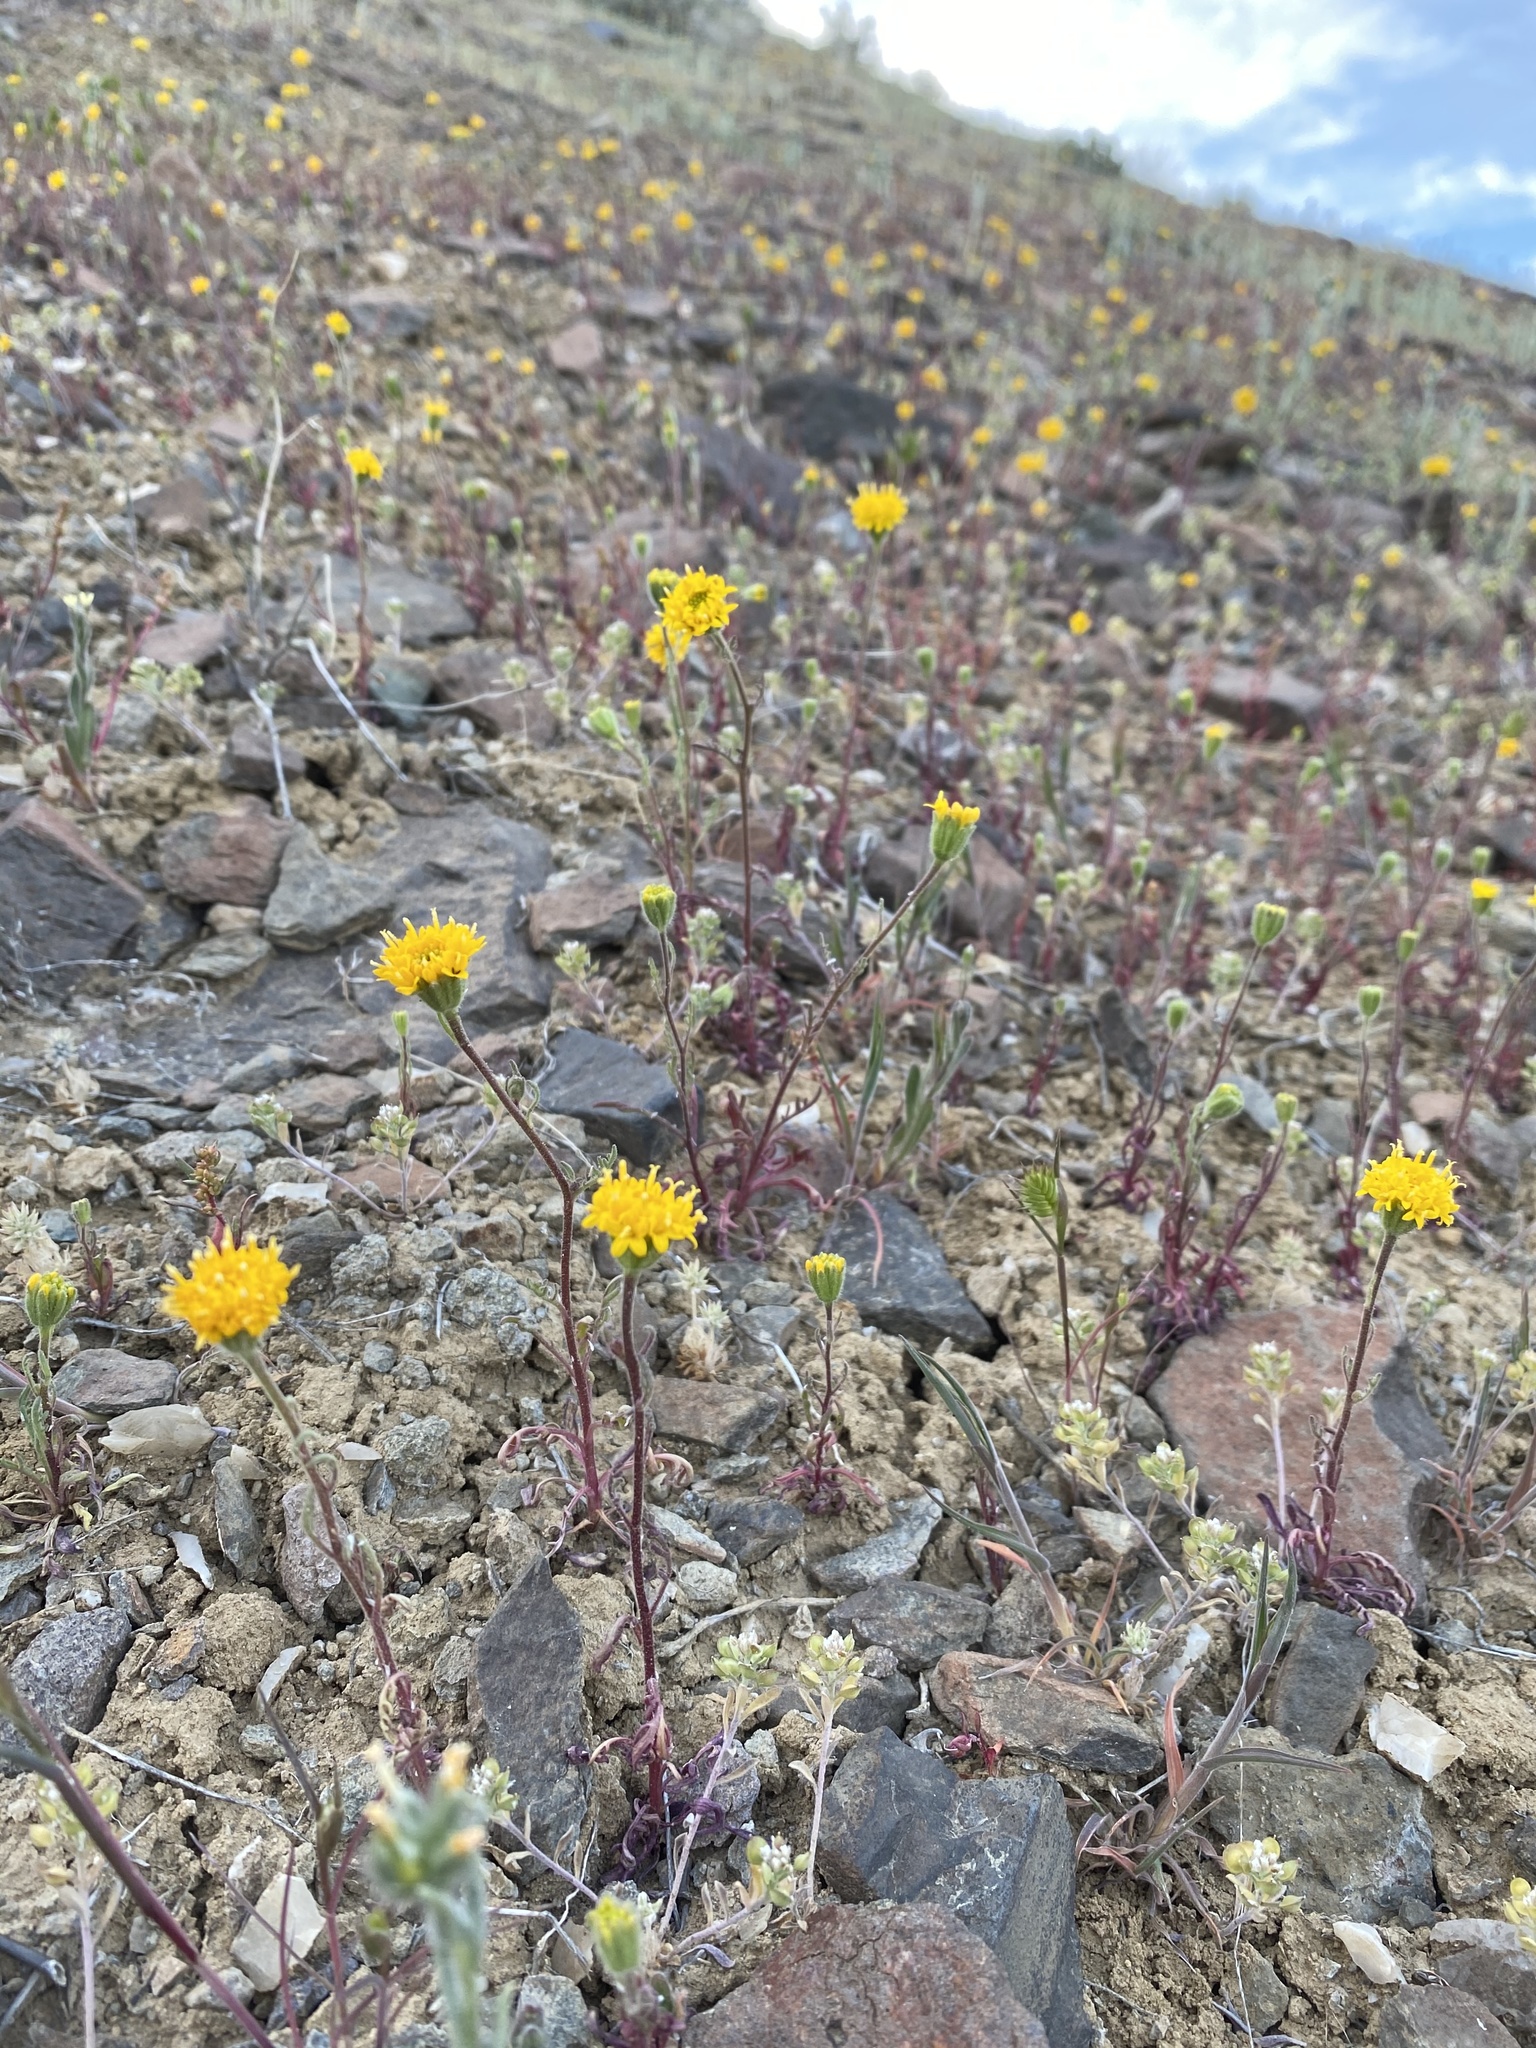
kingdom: Plantae
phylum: Tracheophyta
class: Magnoliopsida
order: Asterales
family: Asteraceae
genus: Chaenactis
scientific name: Chaenactis nevii
